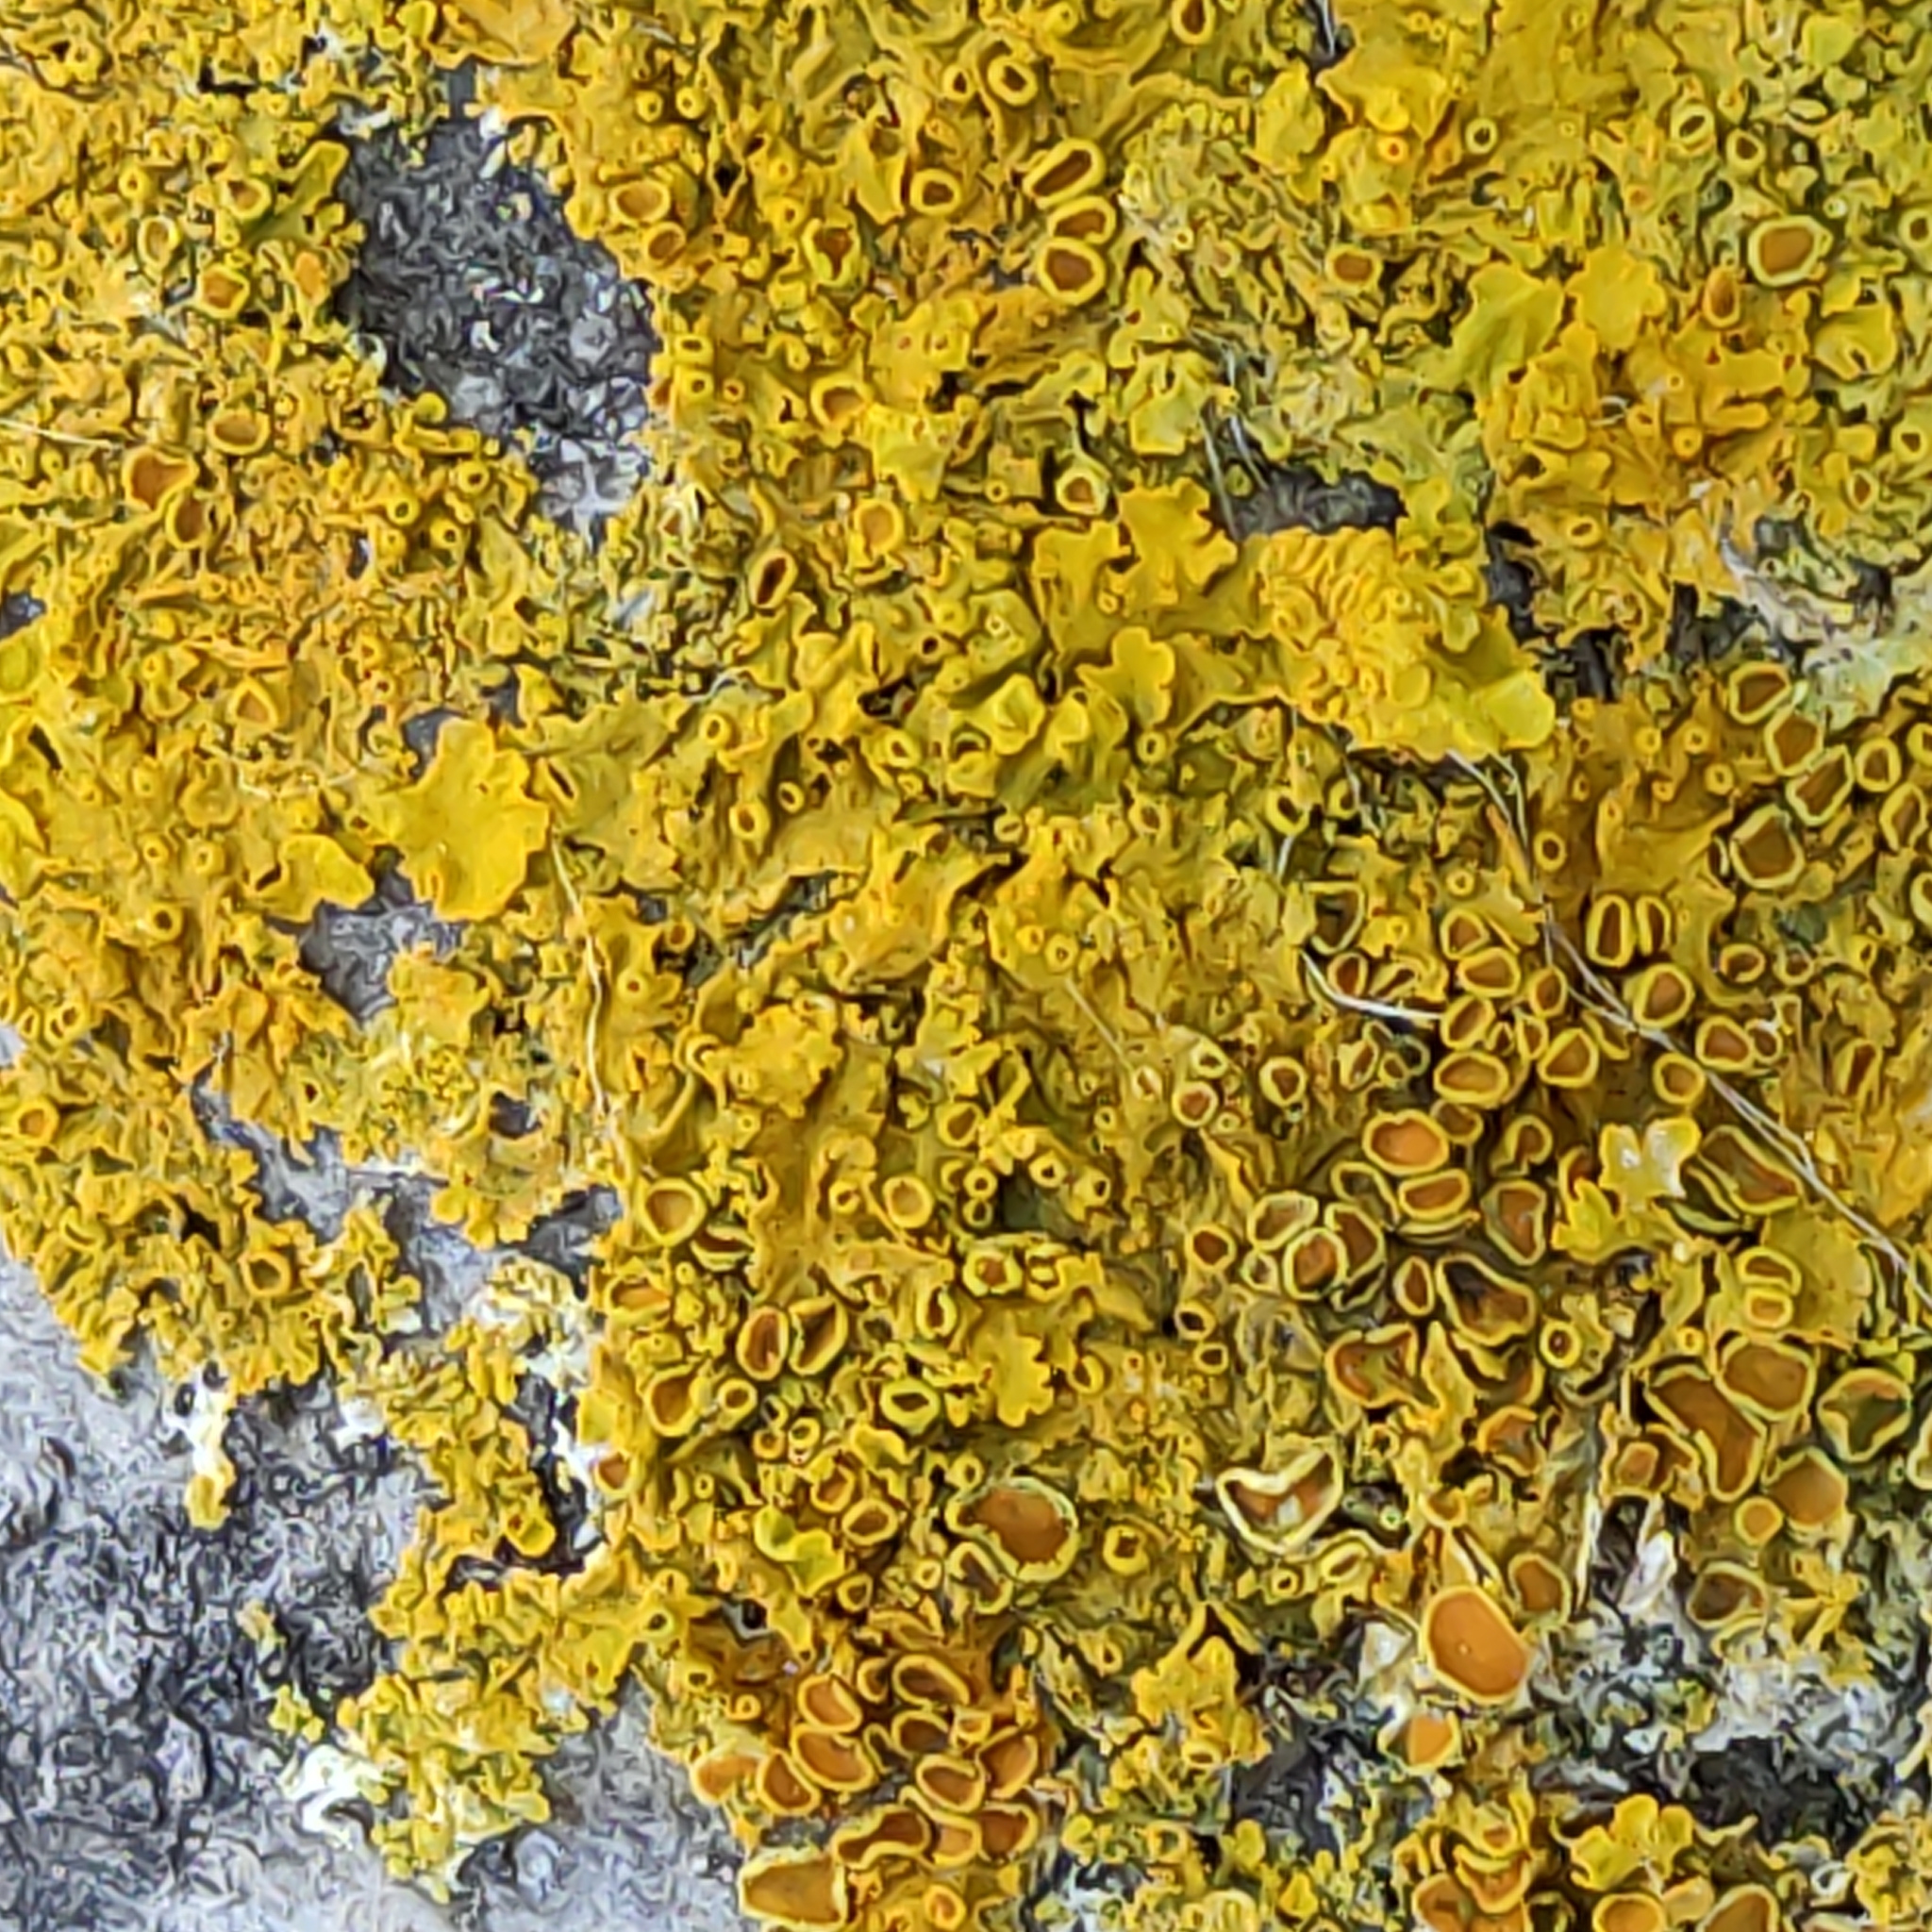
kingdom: Fungi
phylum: Ascomycota
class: Lecanoromycetes
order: Teloschistales
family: Teloschistaceae
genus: Xanthoria
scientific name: Xanthoria parietina
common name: Common orange lichen
